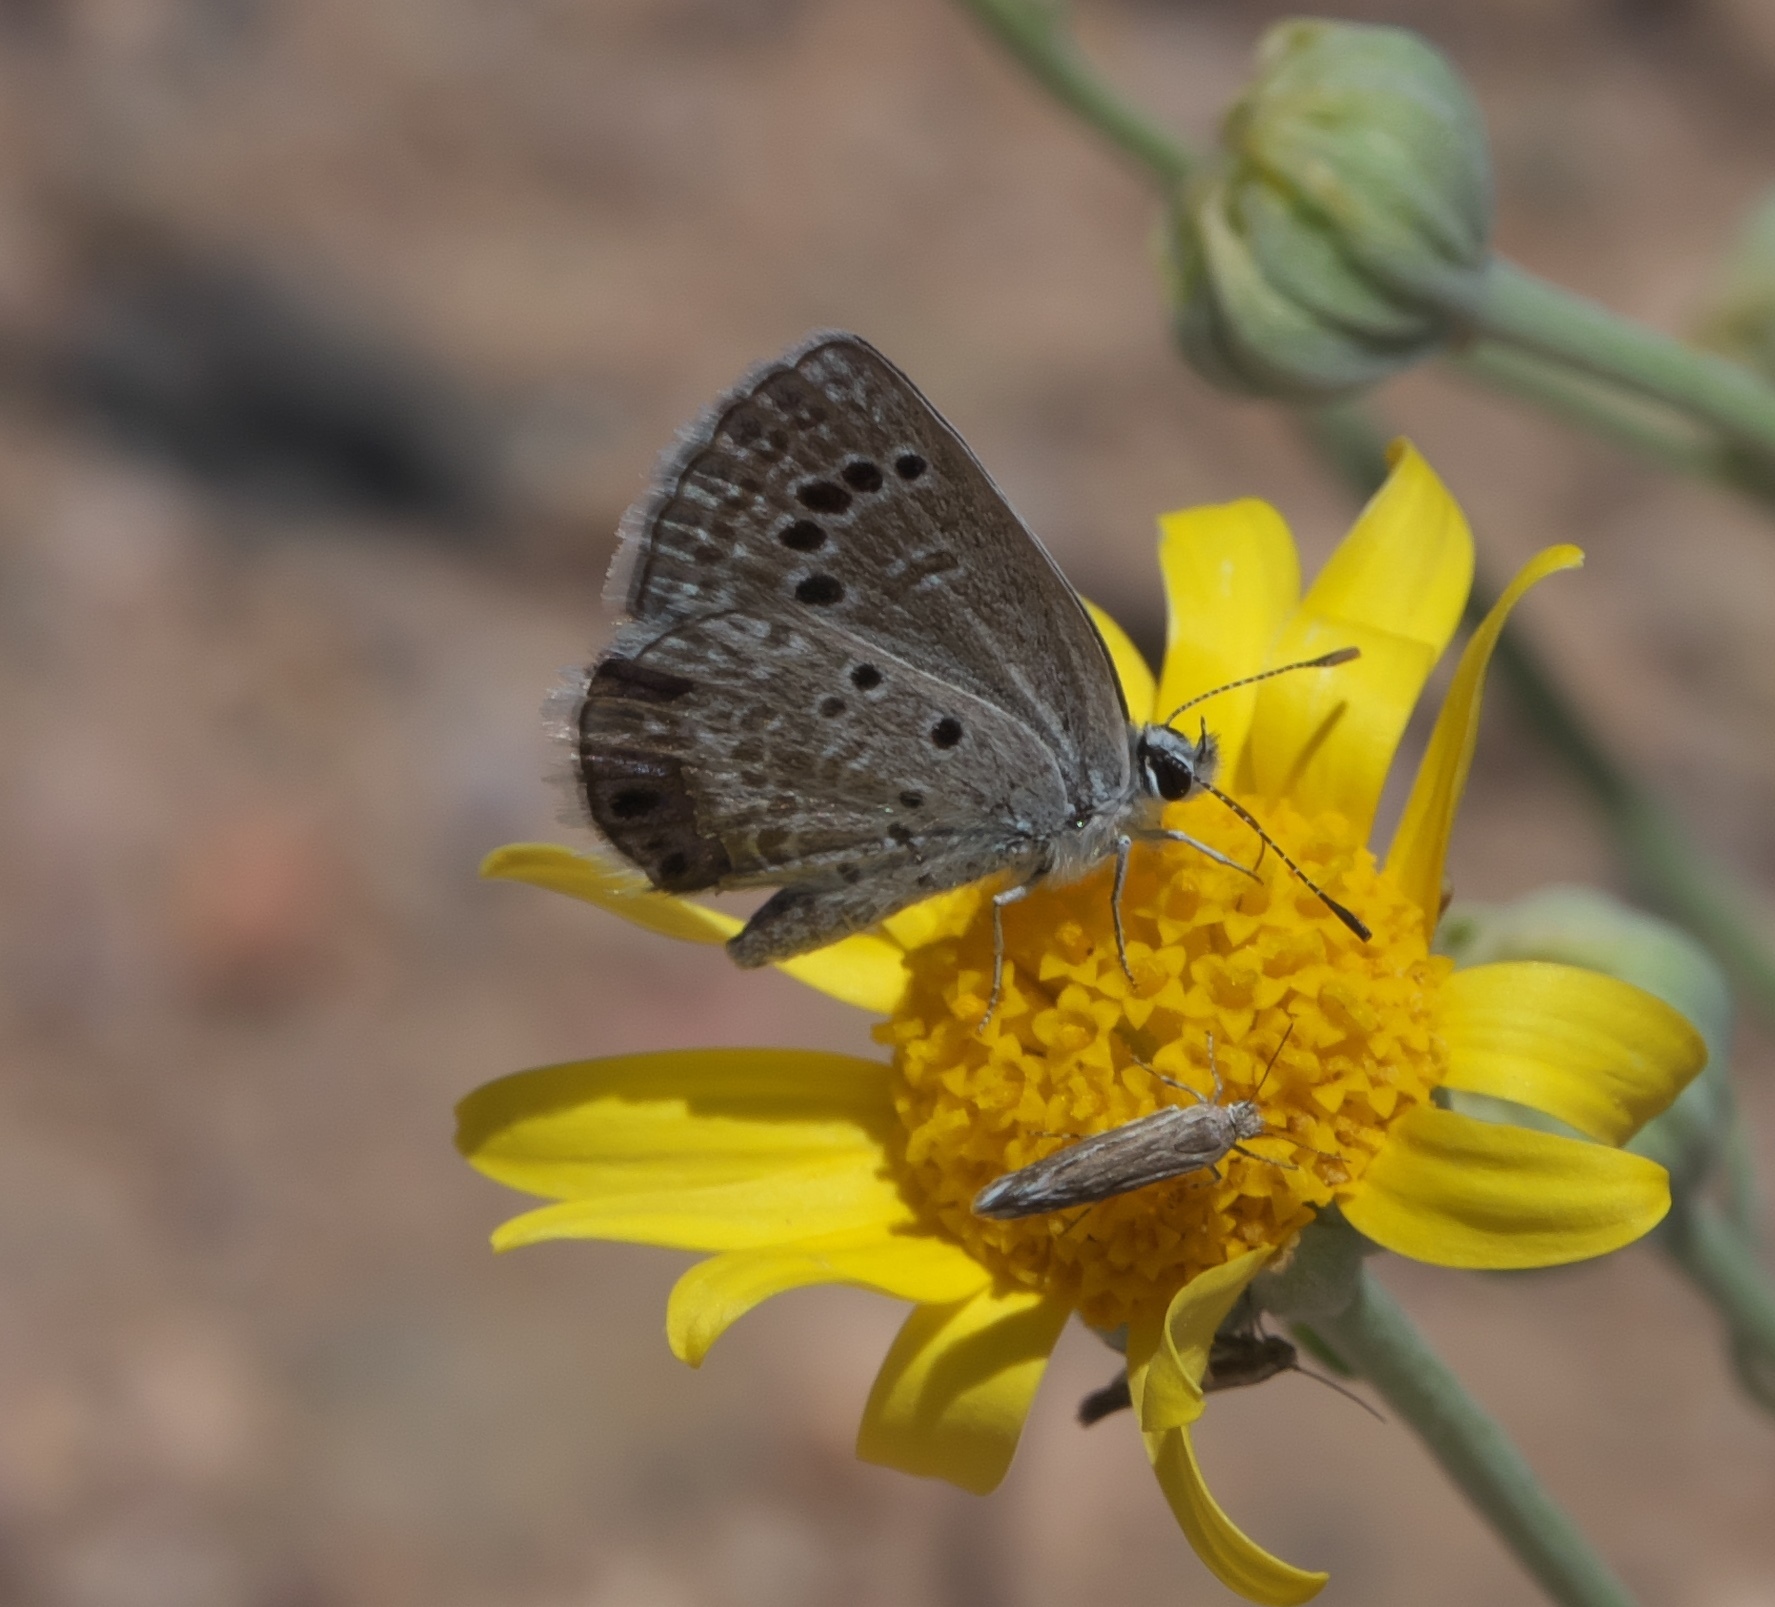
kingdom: Animalia
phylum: Arthropoda
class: Insecta
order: Lepidoptera
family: Lycaenidae
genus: Echinargus
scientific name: Echinargus isola
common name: Reakirt's blue
